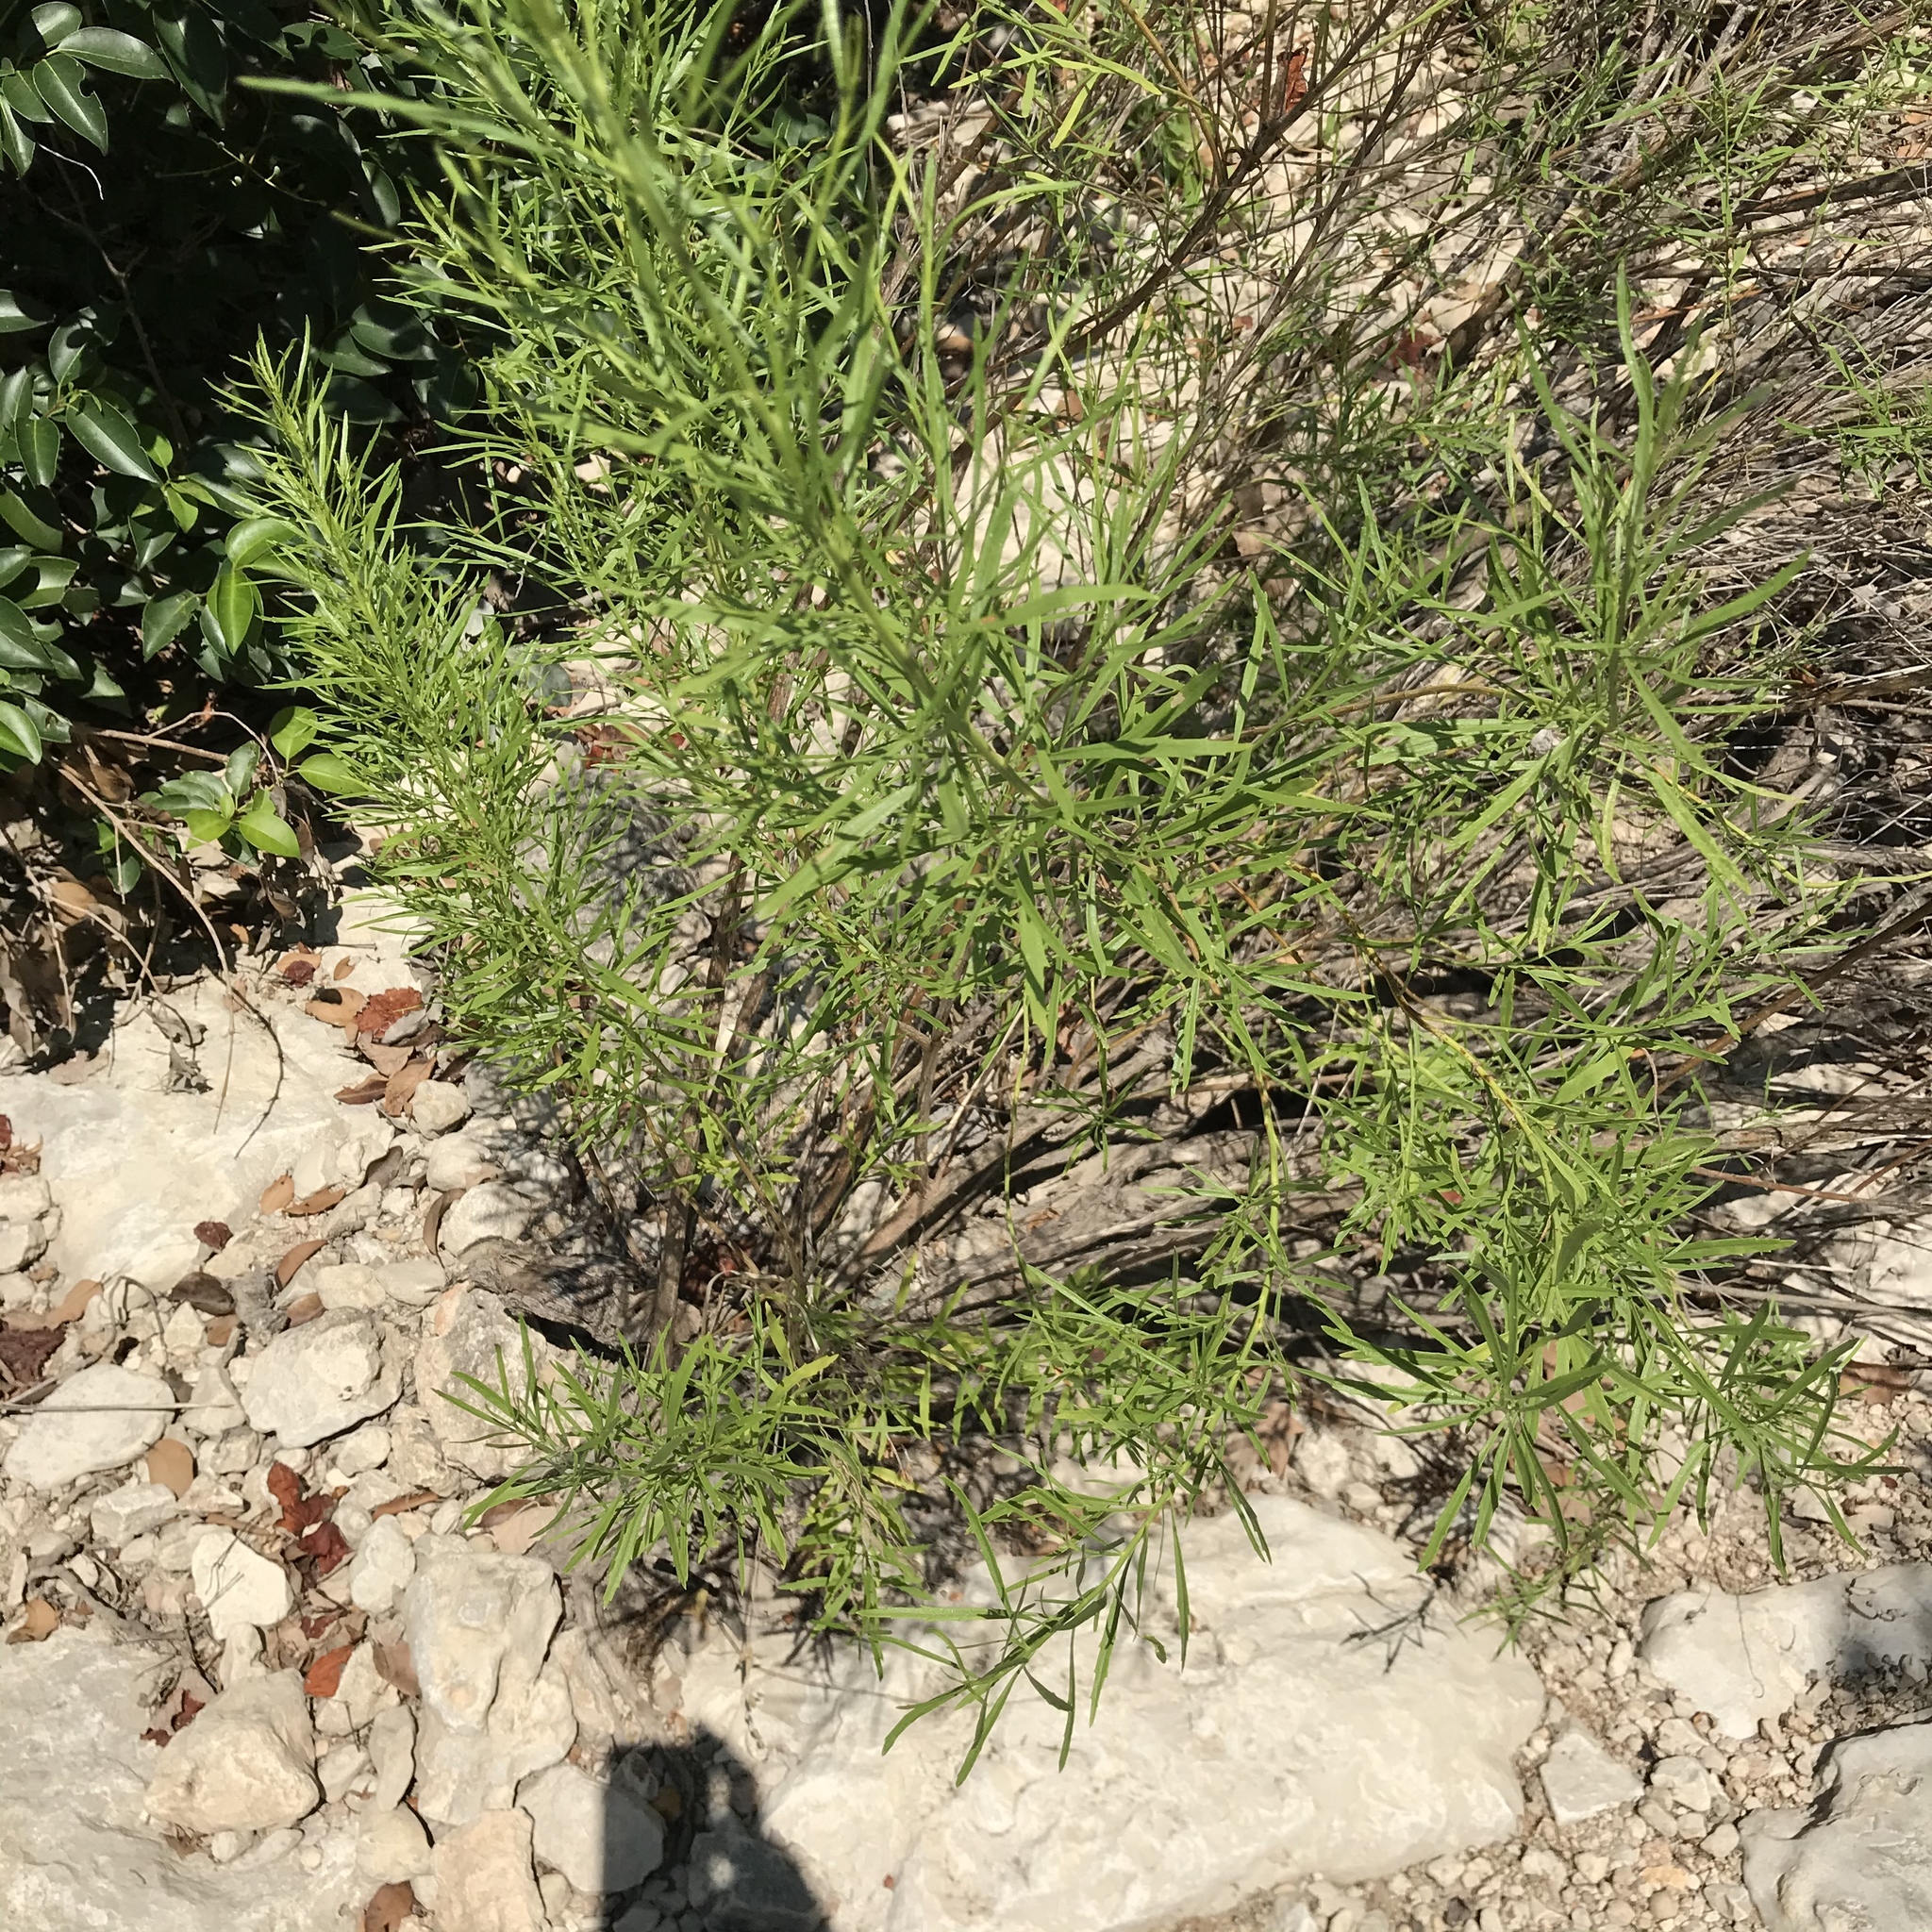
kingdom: Plantae
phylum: Tracheophyta
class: Magnoliopsida
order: Asterales
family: Asteraceae
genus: Baccharis
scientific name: Baccharis neglecta
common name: Roosevelt-weed
